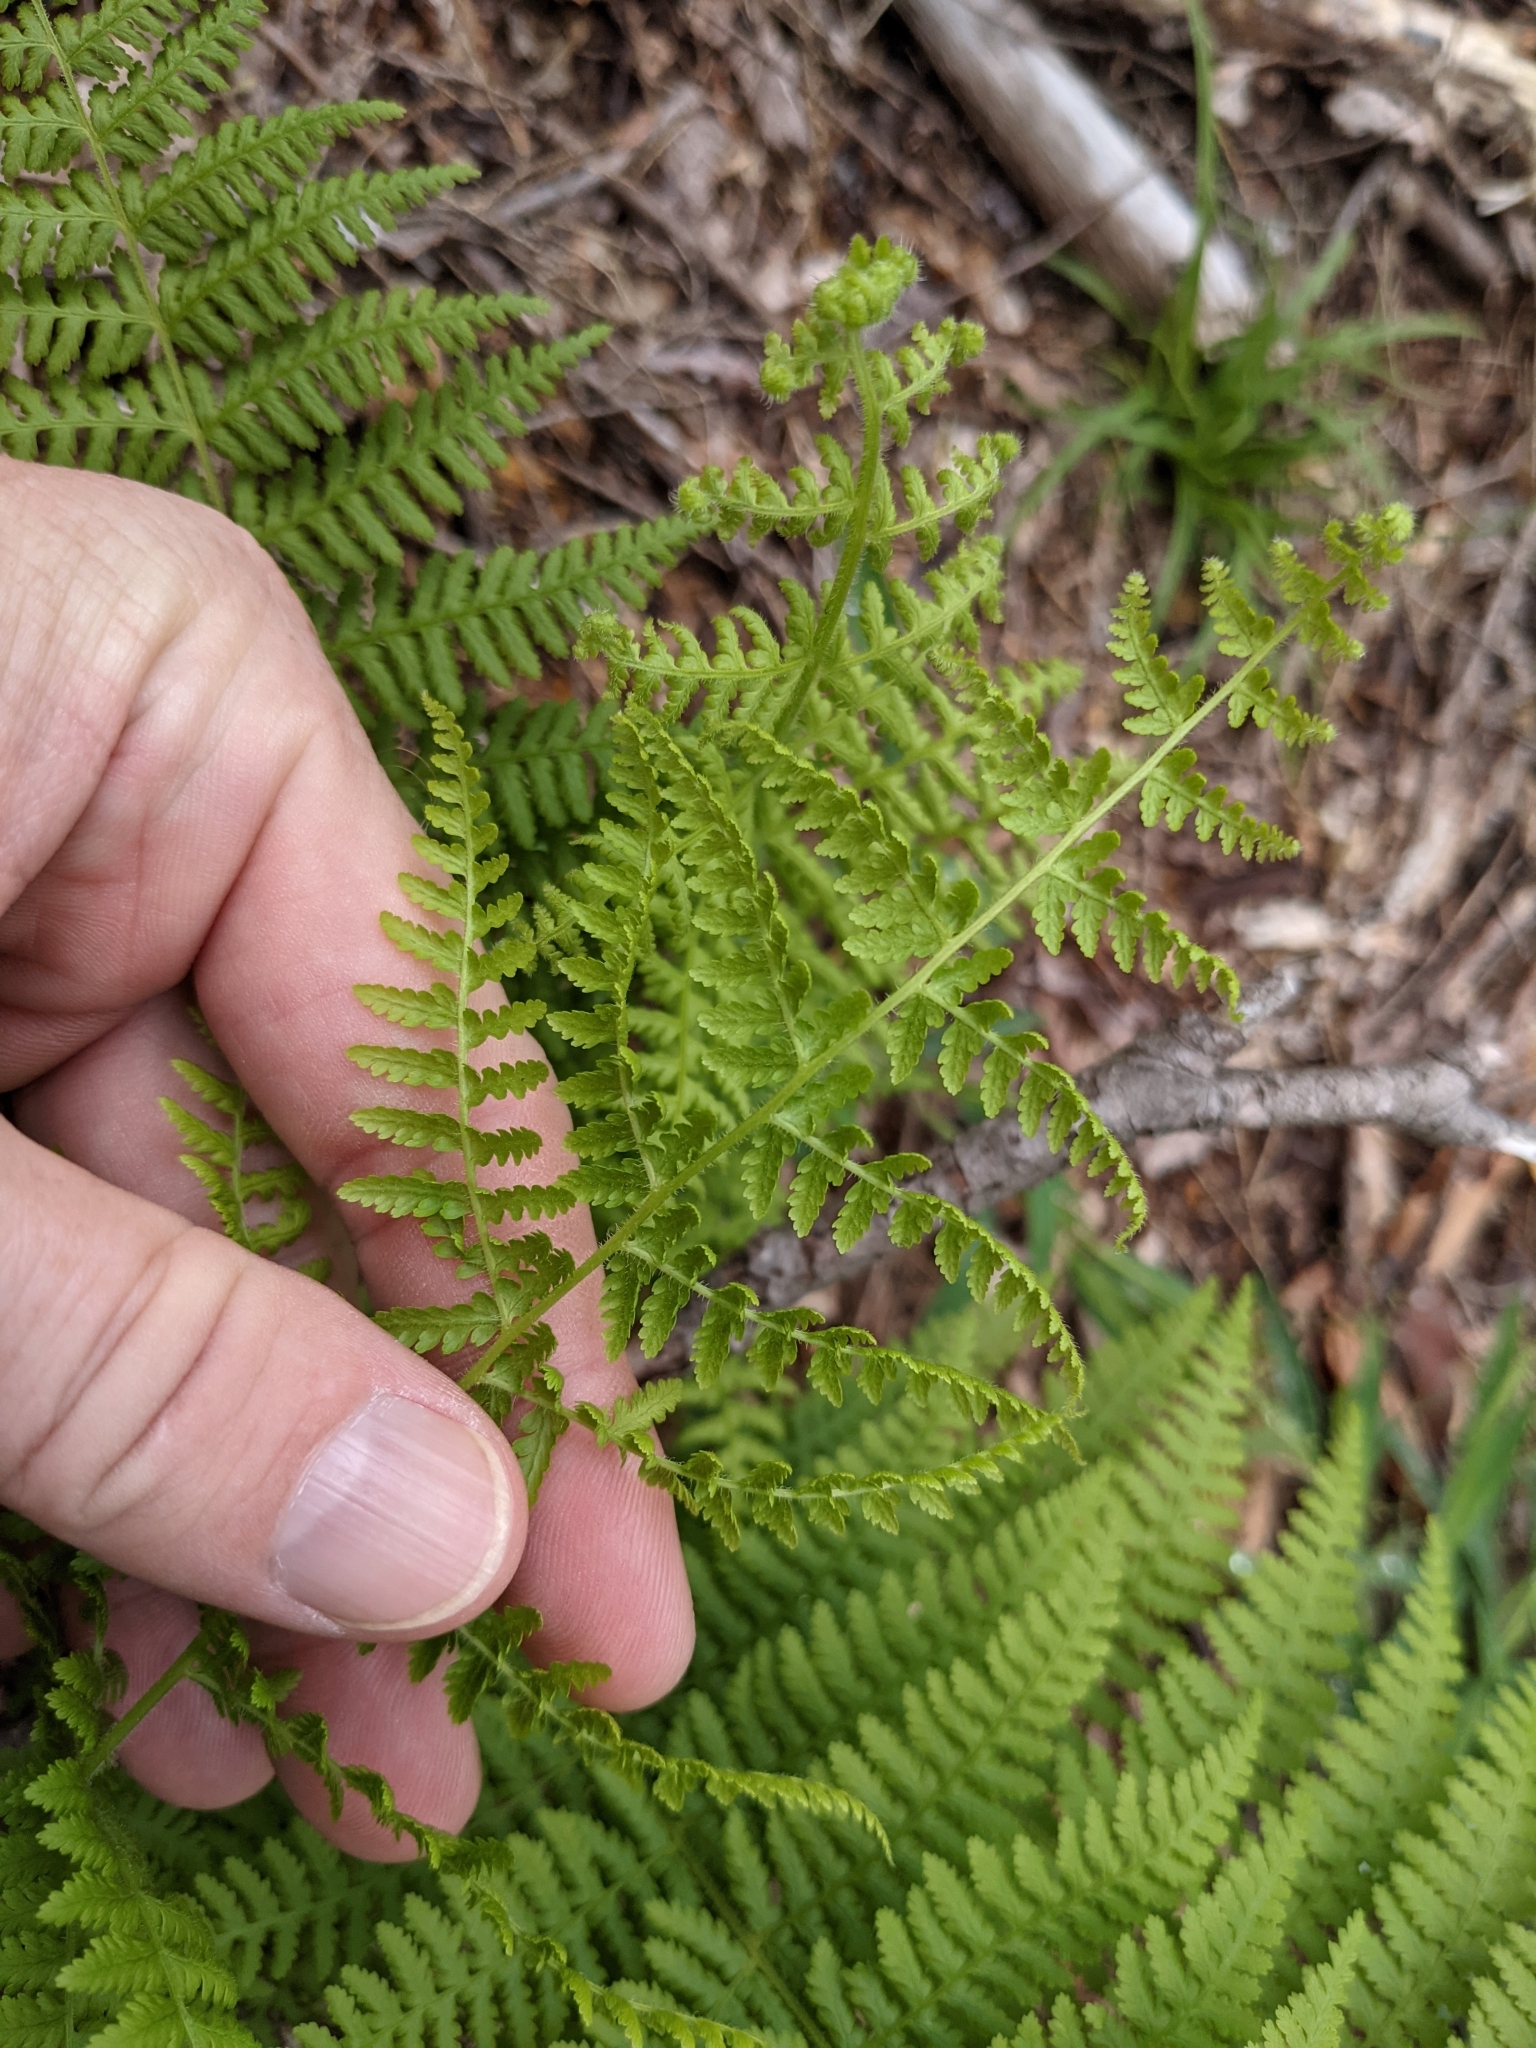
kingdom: Plantae
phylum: Tracheophyta
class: Polypodiopsida
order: Polypodiales
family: Dennstaedtiaceae
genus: Sitobolium
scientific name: Sitobolium punctilobum
